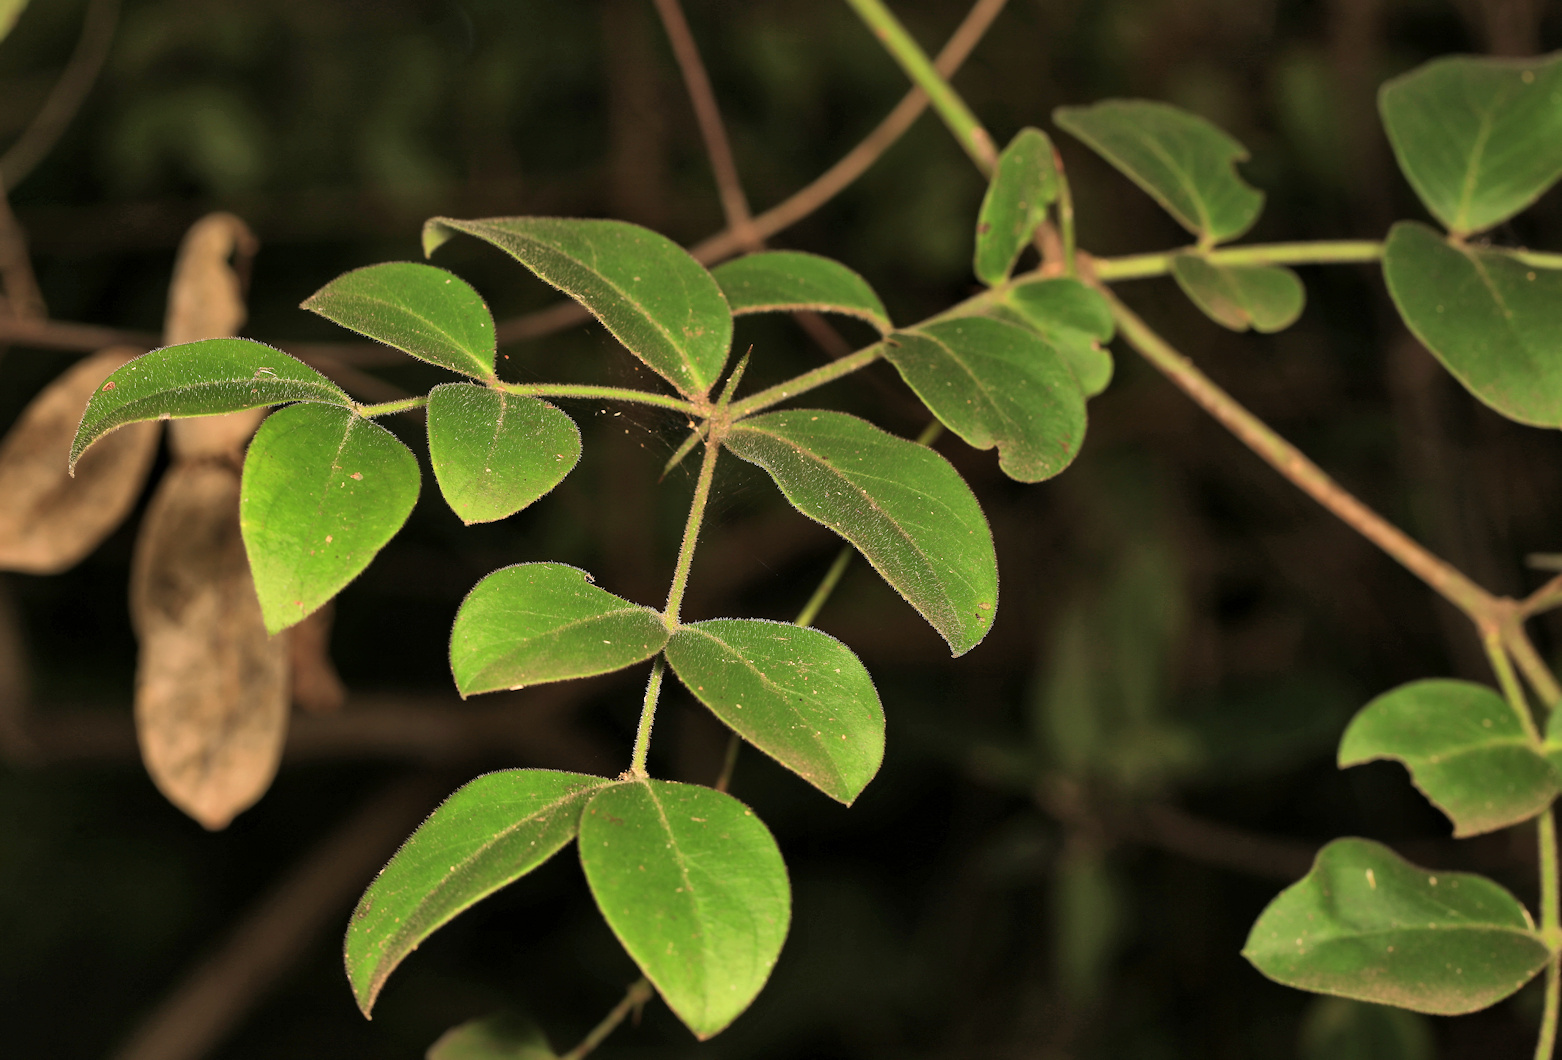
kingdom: Plantae
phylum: Tracheophyta
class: Magnoliopsida
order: Gentianales
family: Apocynaceae
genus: Carissa
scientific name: Carissa spinarum
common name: Egyptian carissa
